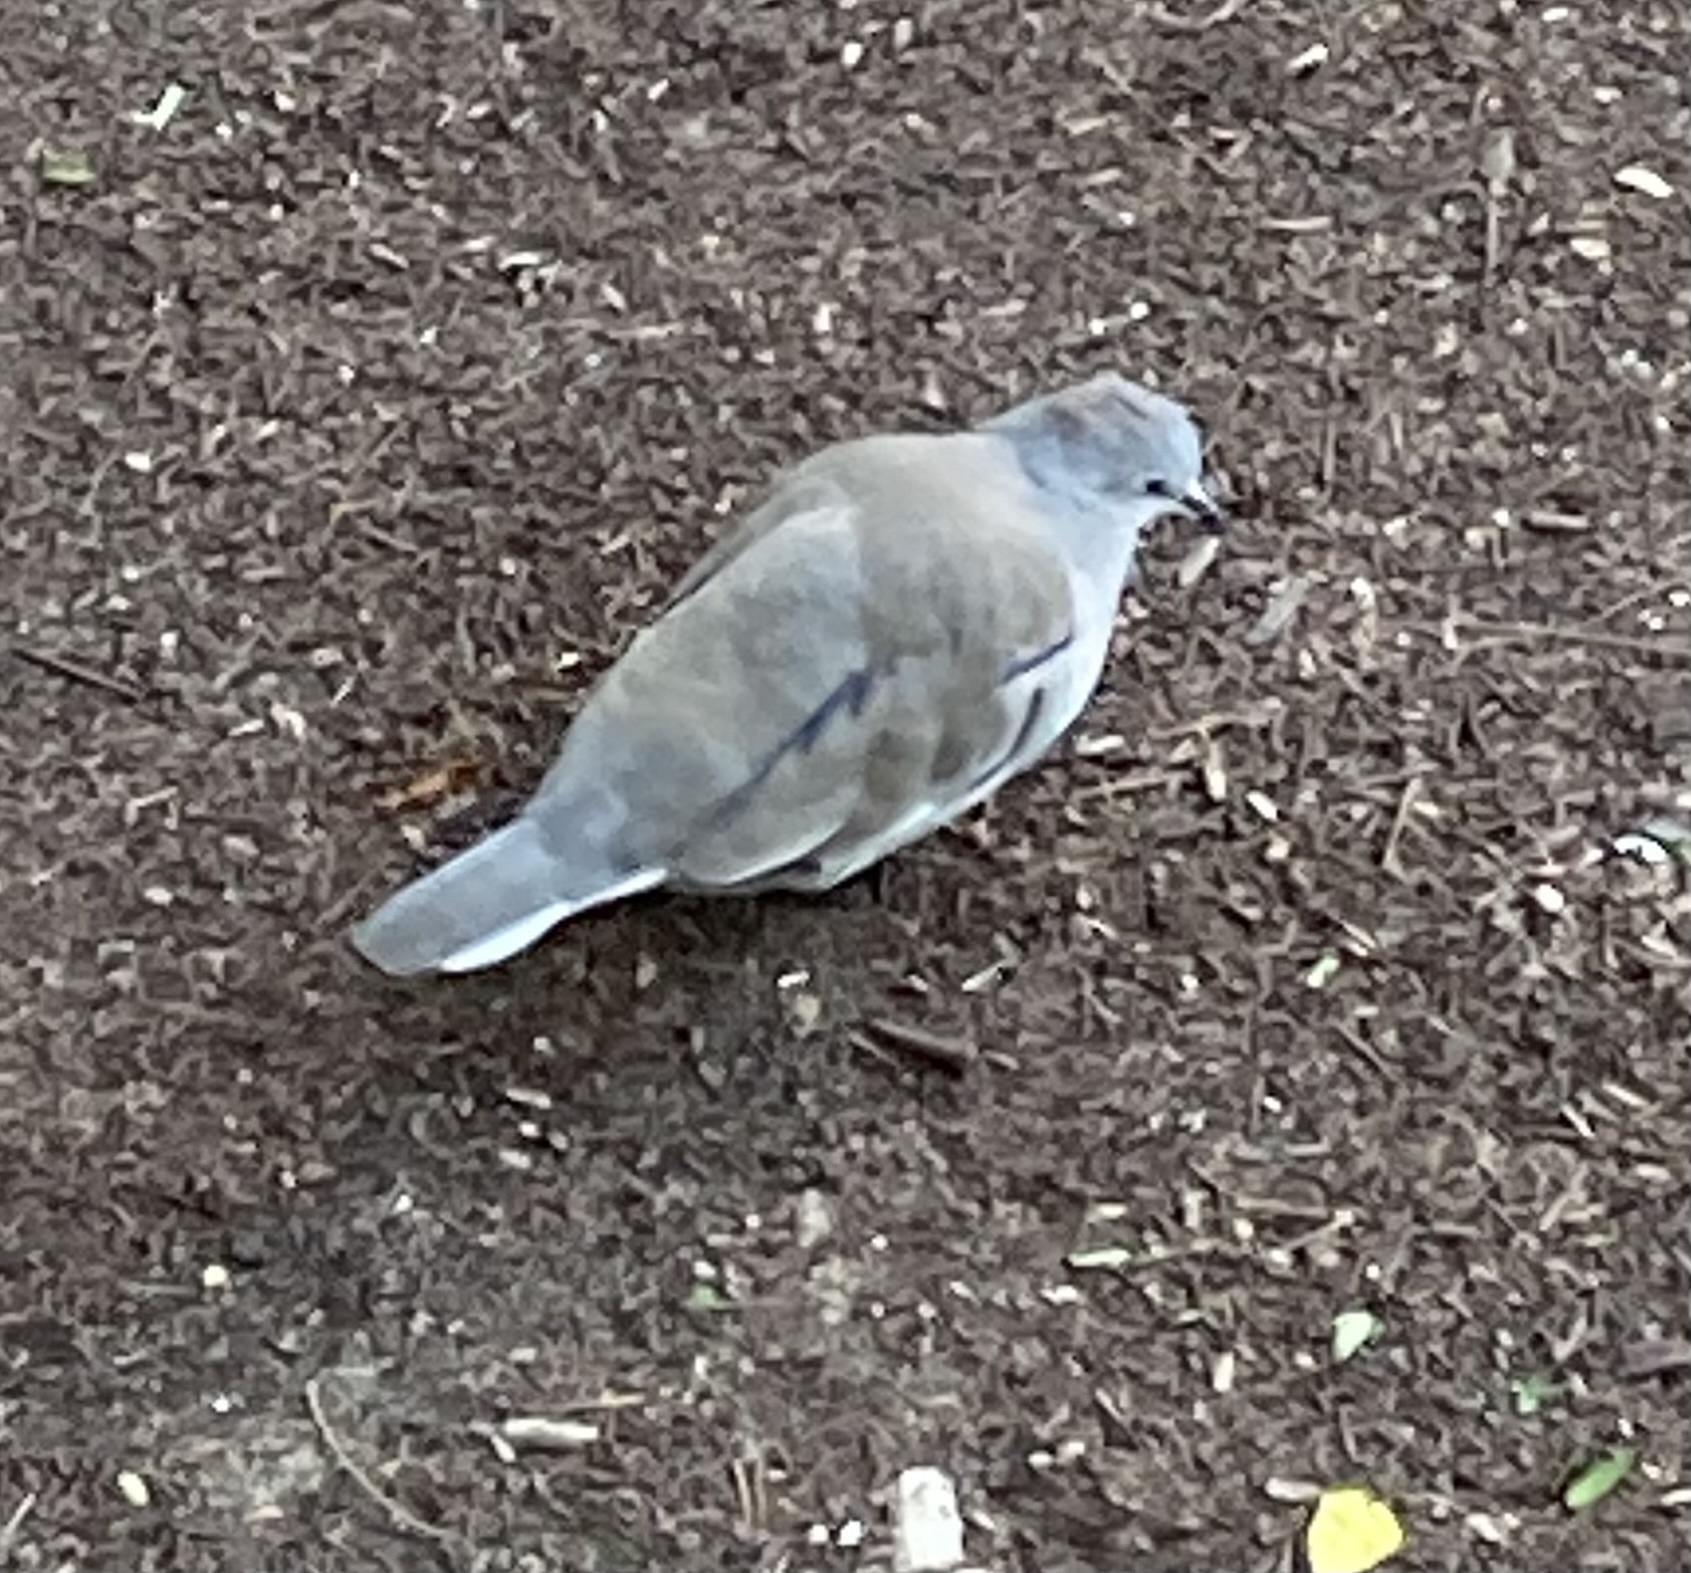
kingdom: Animalia
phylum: Chordata
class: Aves
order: Columbiformes
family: Columbidae
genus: Columbina
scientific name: Columbina picui
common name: Picui ground dove
